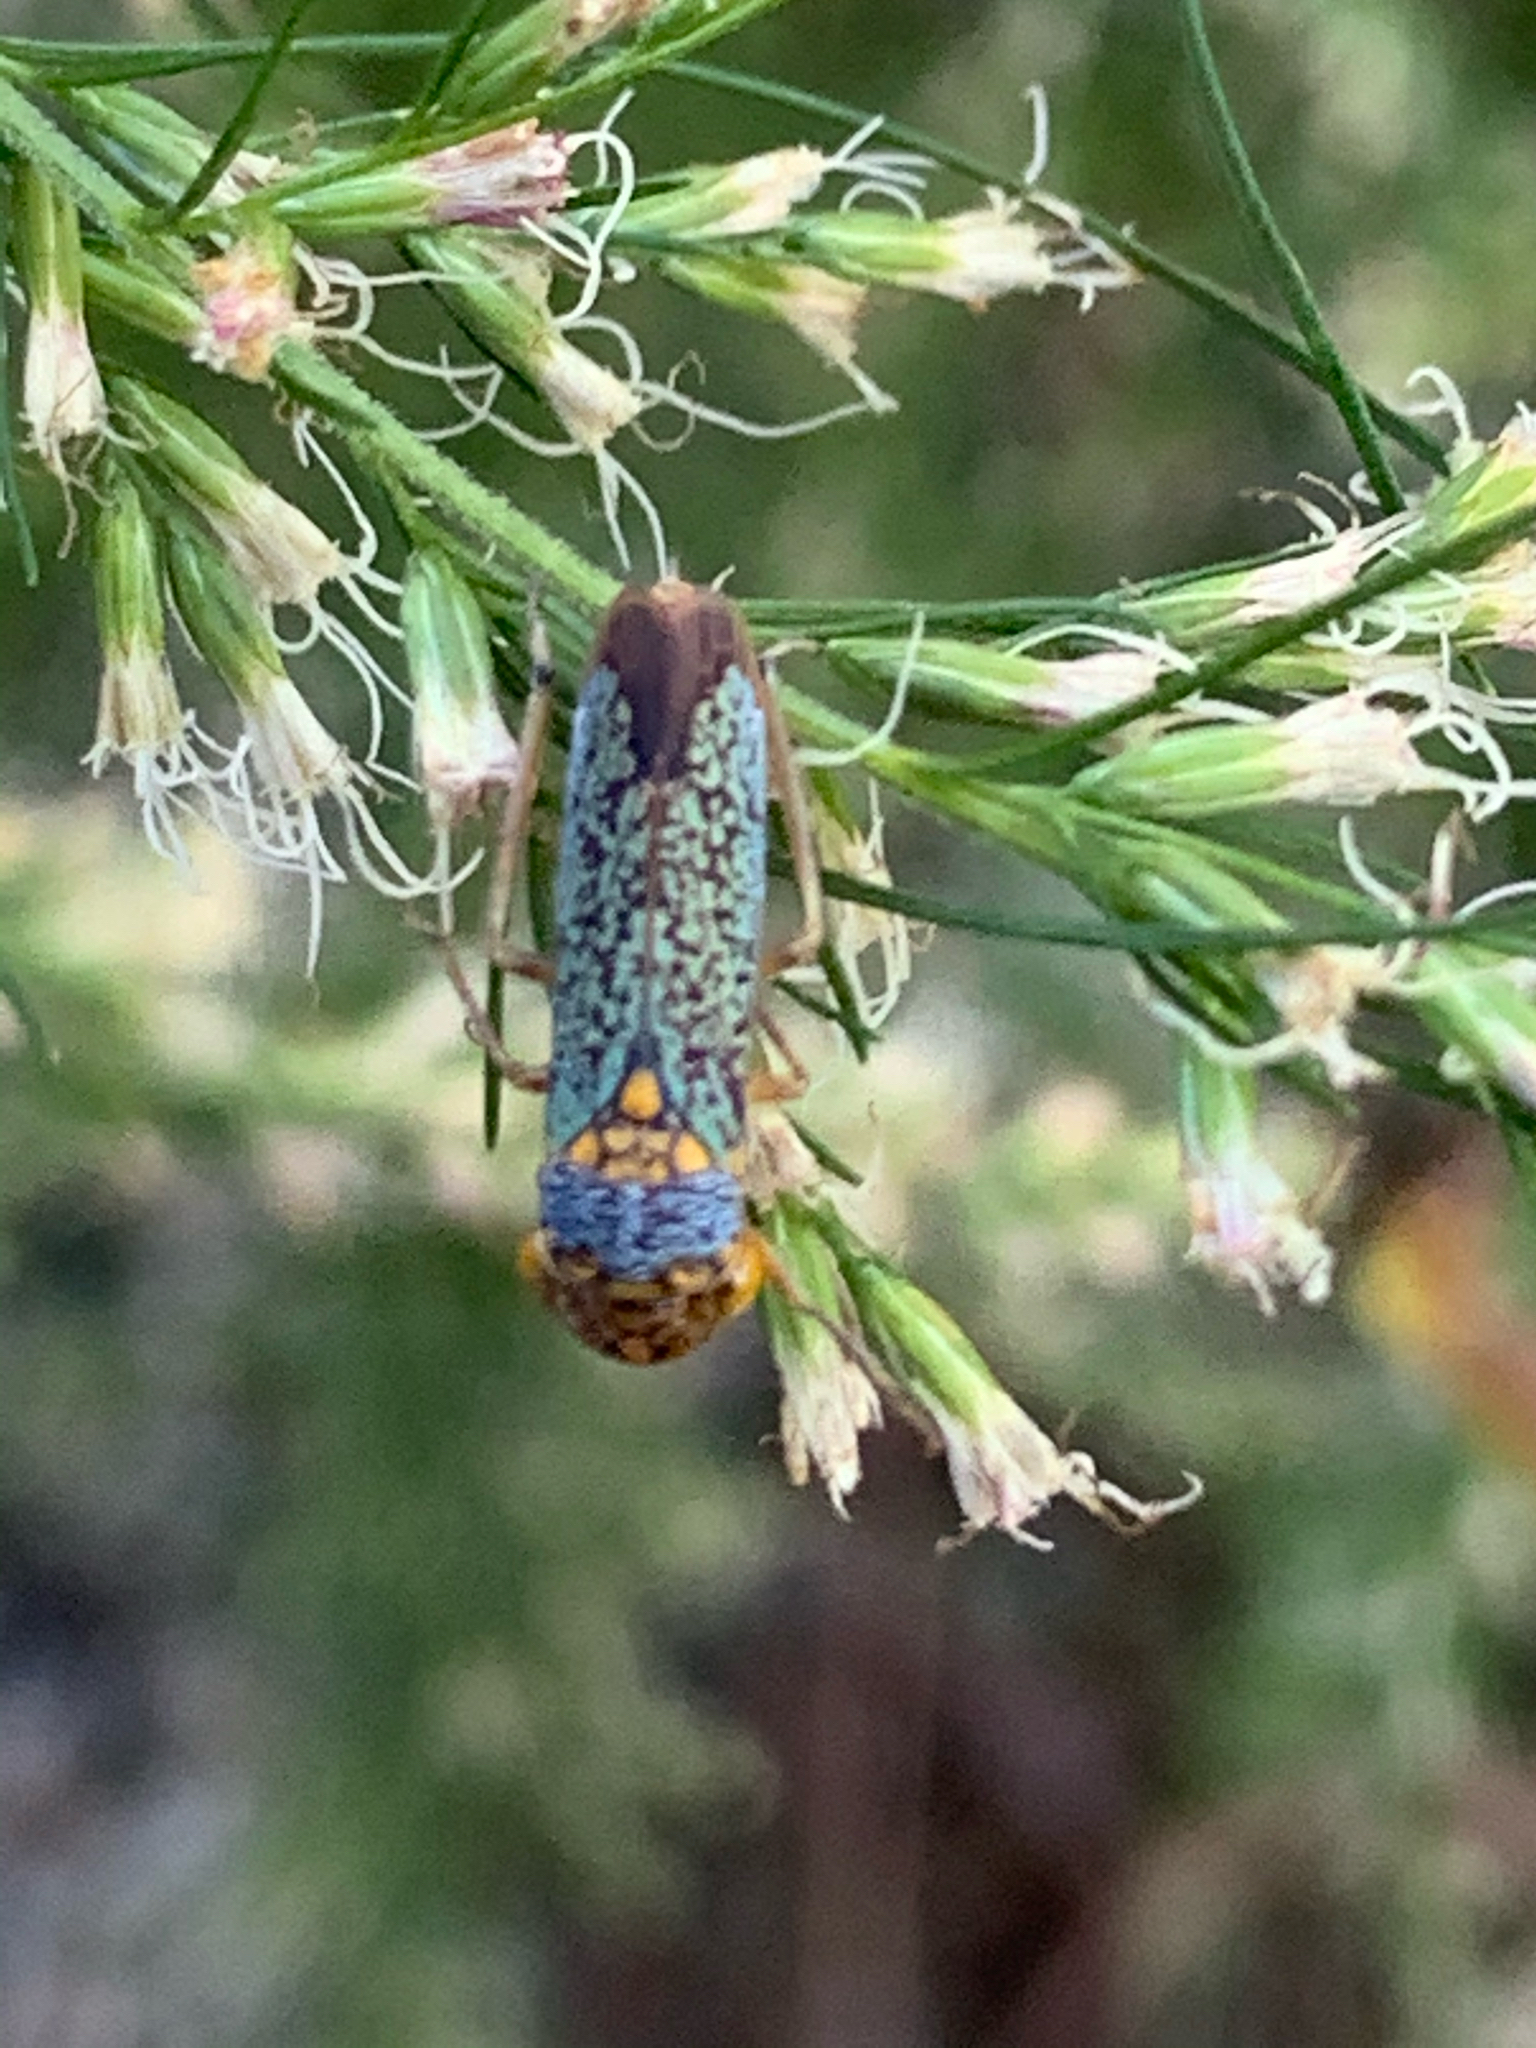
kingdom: Animalia
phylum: Arthropoda
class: Insecta
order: Hemiptera
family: Cicadellidae
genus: Oncometopia
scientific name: Oncometopia orbona
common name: Broad-headed sharpshooter
